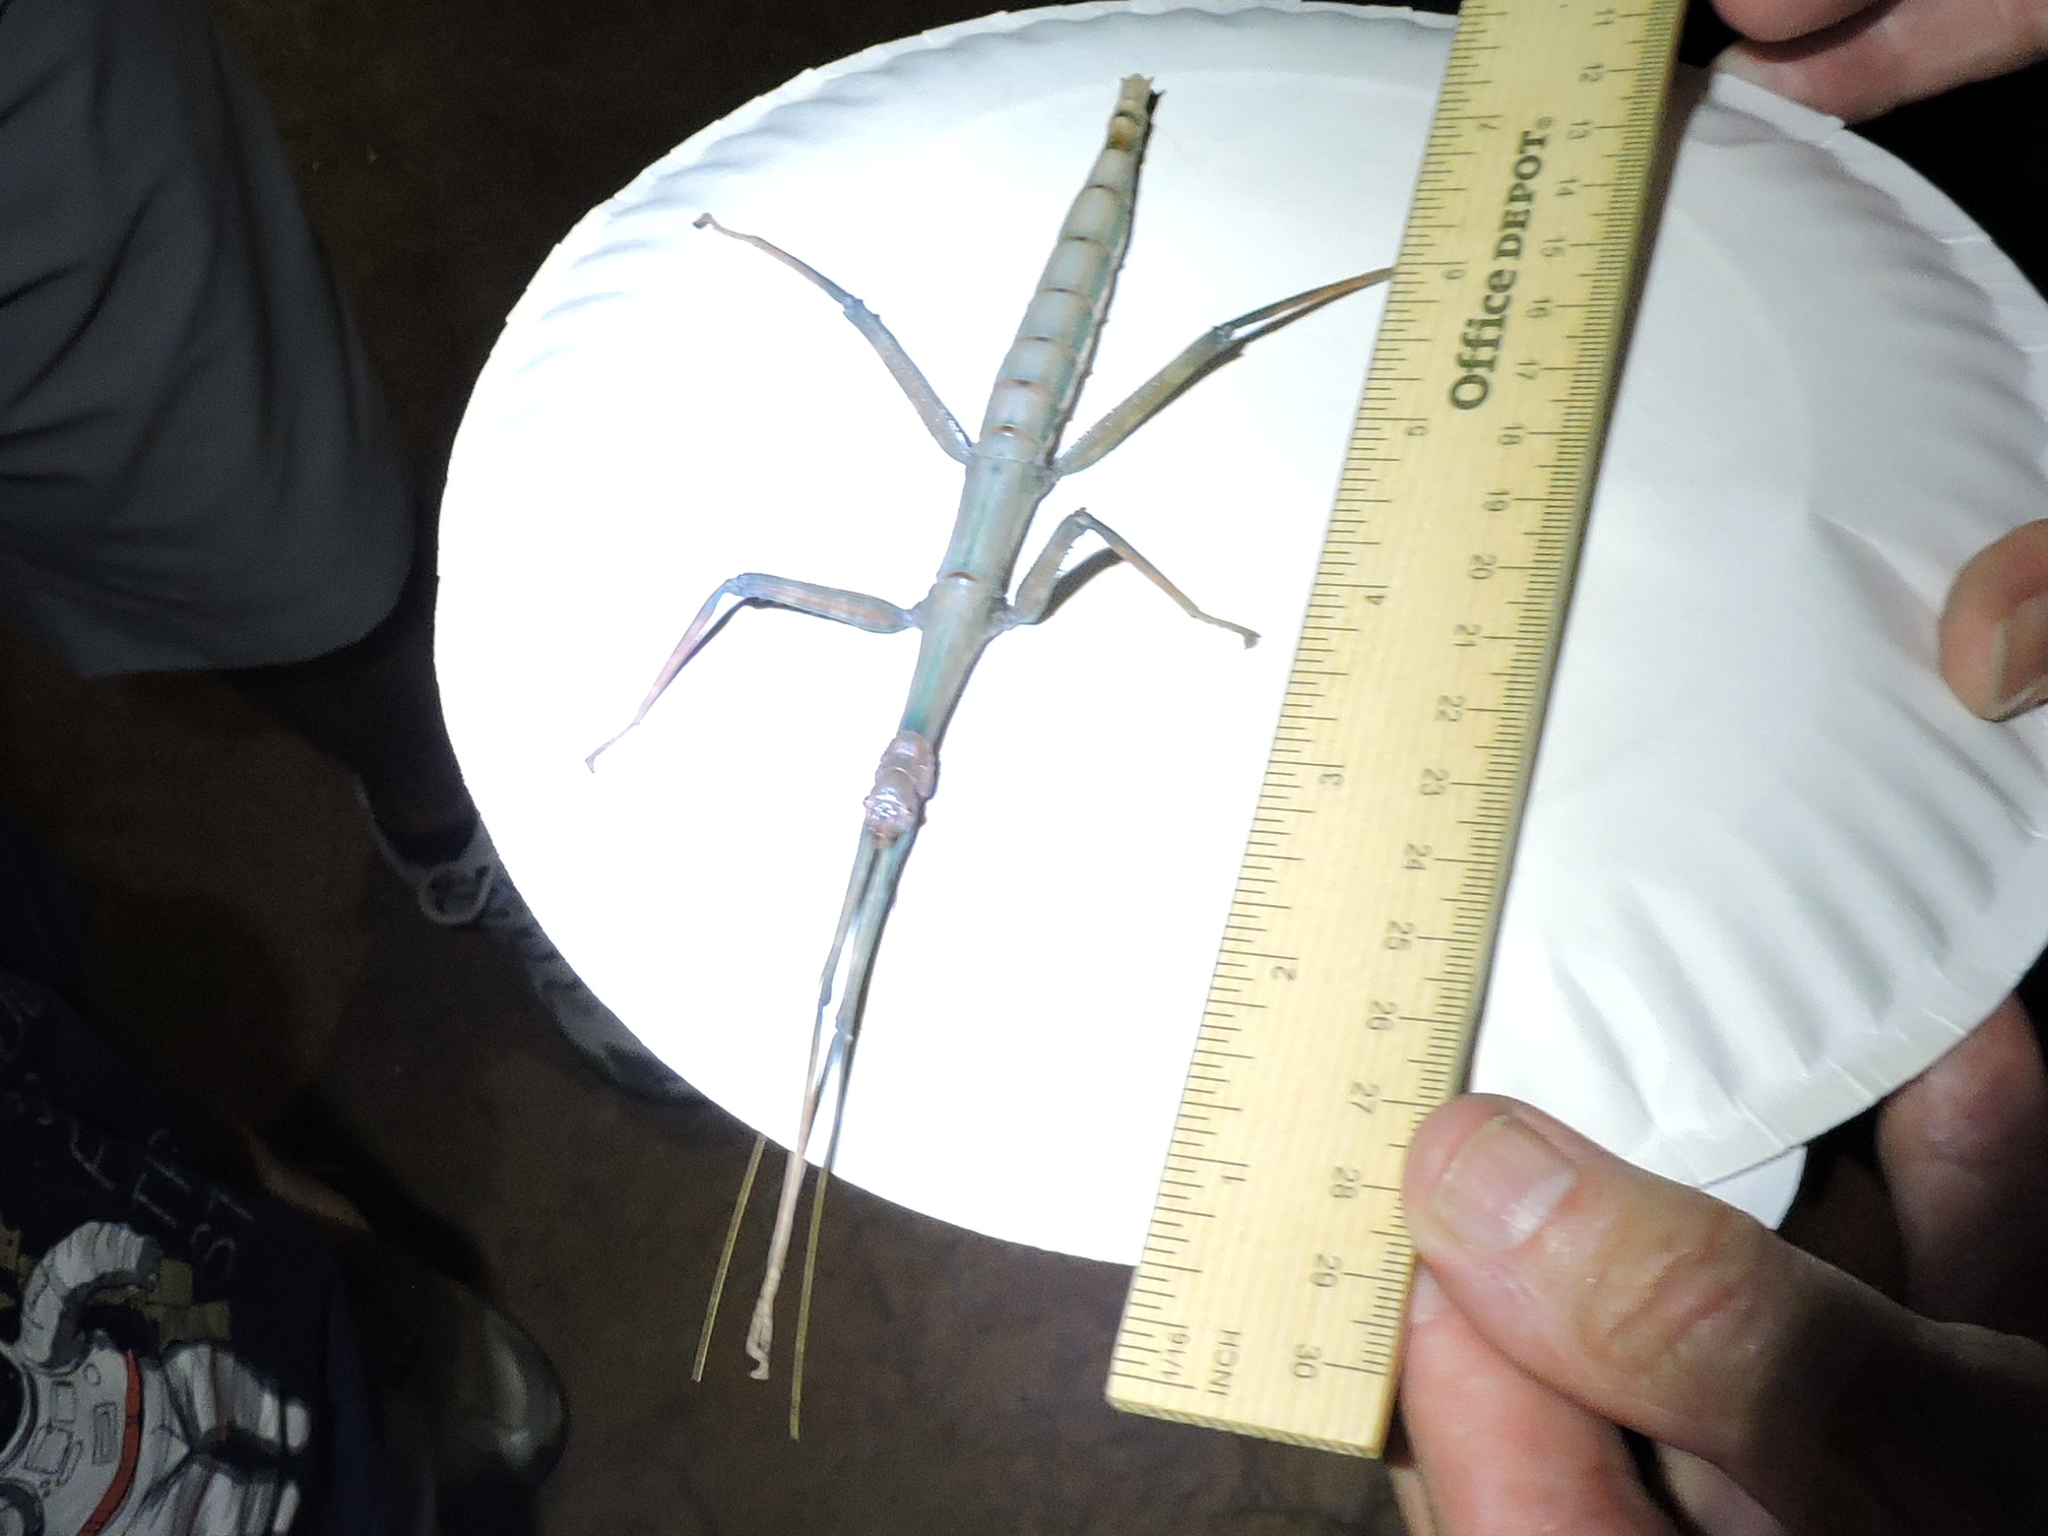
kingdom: Animalia
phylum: Arthropoda
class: Insecta
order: Phasmida
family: Diapheromeridae
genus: Megaphasma
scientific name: Megaphasma denticrus
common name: Giant walkingstick
